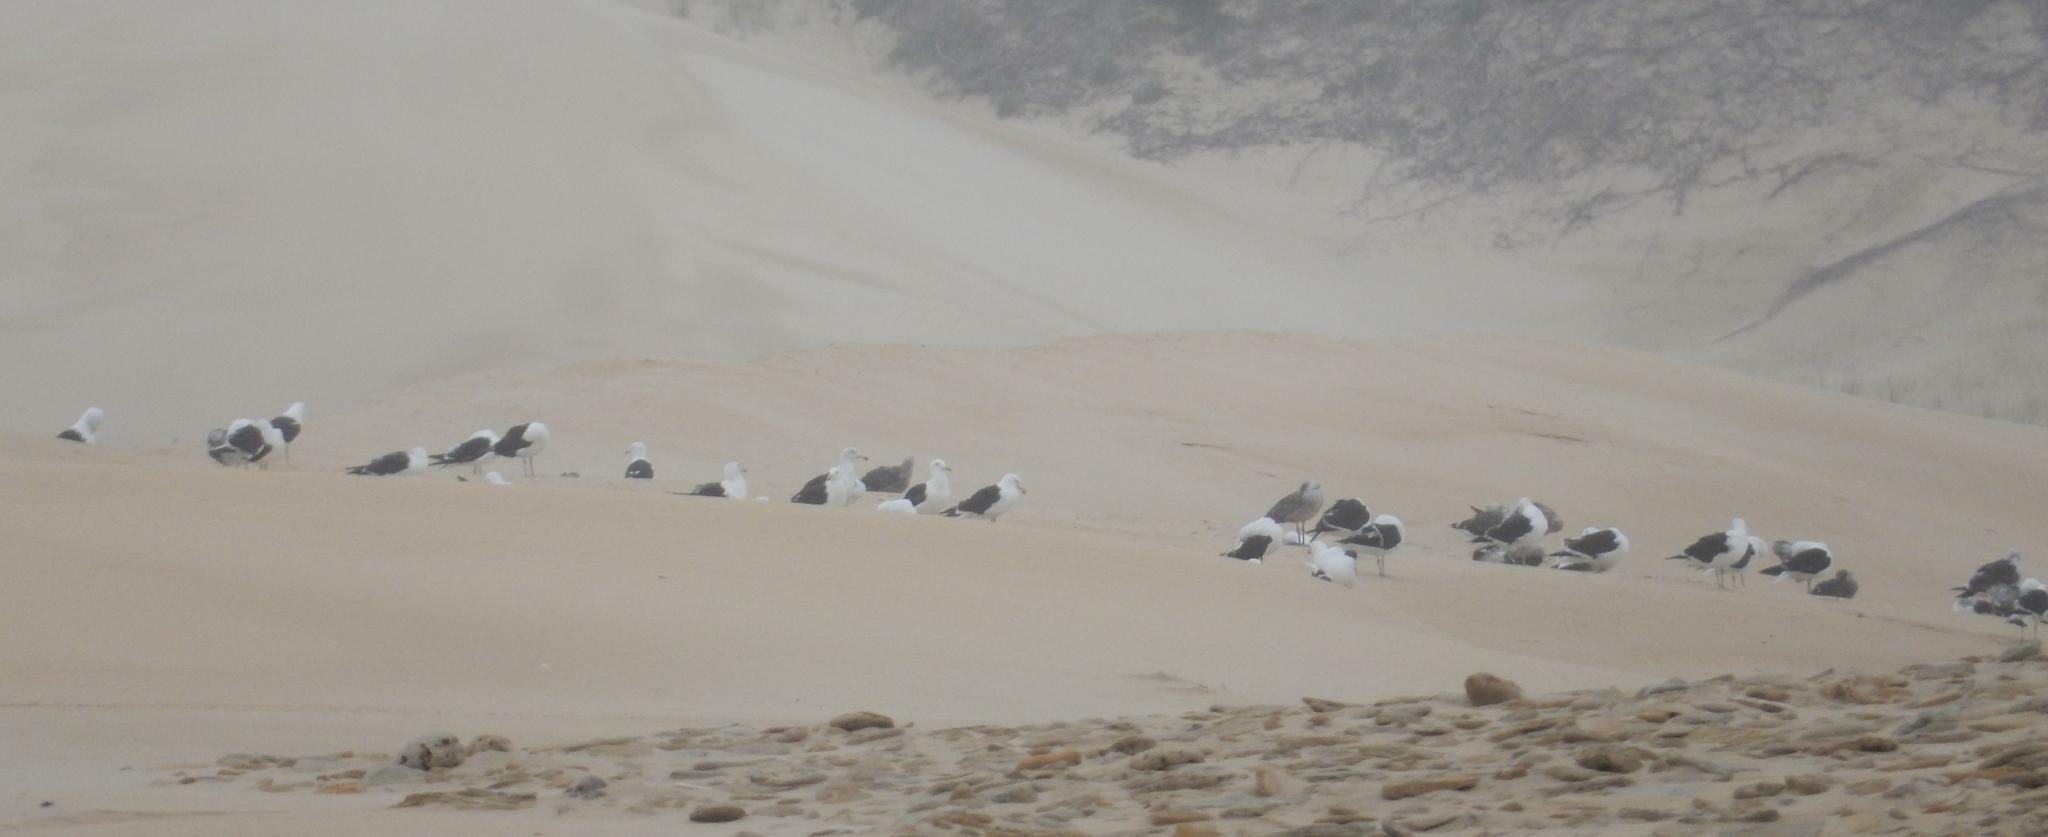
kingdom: Animalia
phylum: Chordata
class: Aves
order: Charadriiformes
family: Laridae
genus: Larus
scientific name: Larus dominicanus
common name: Kelp gull
